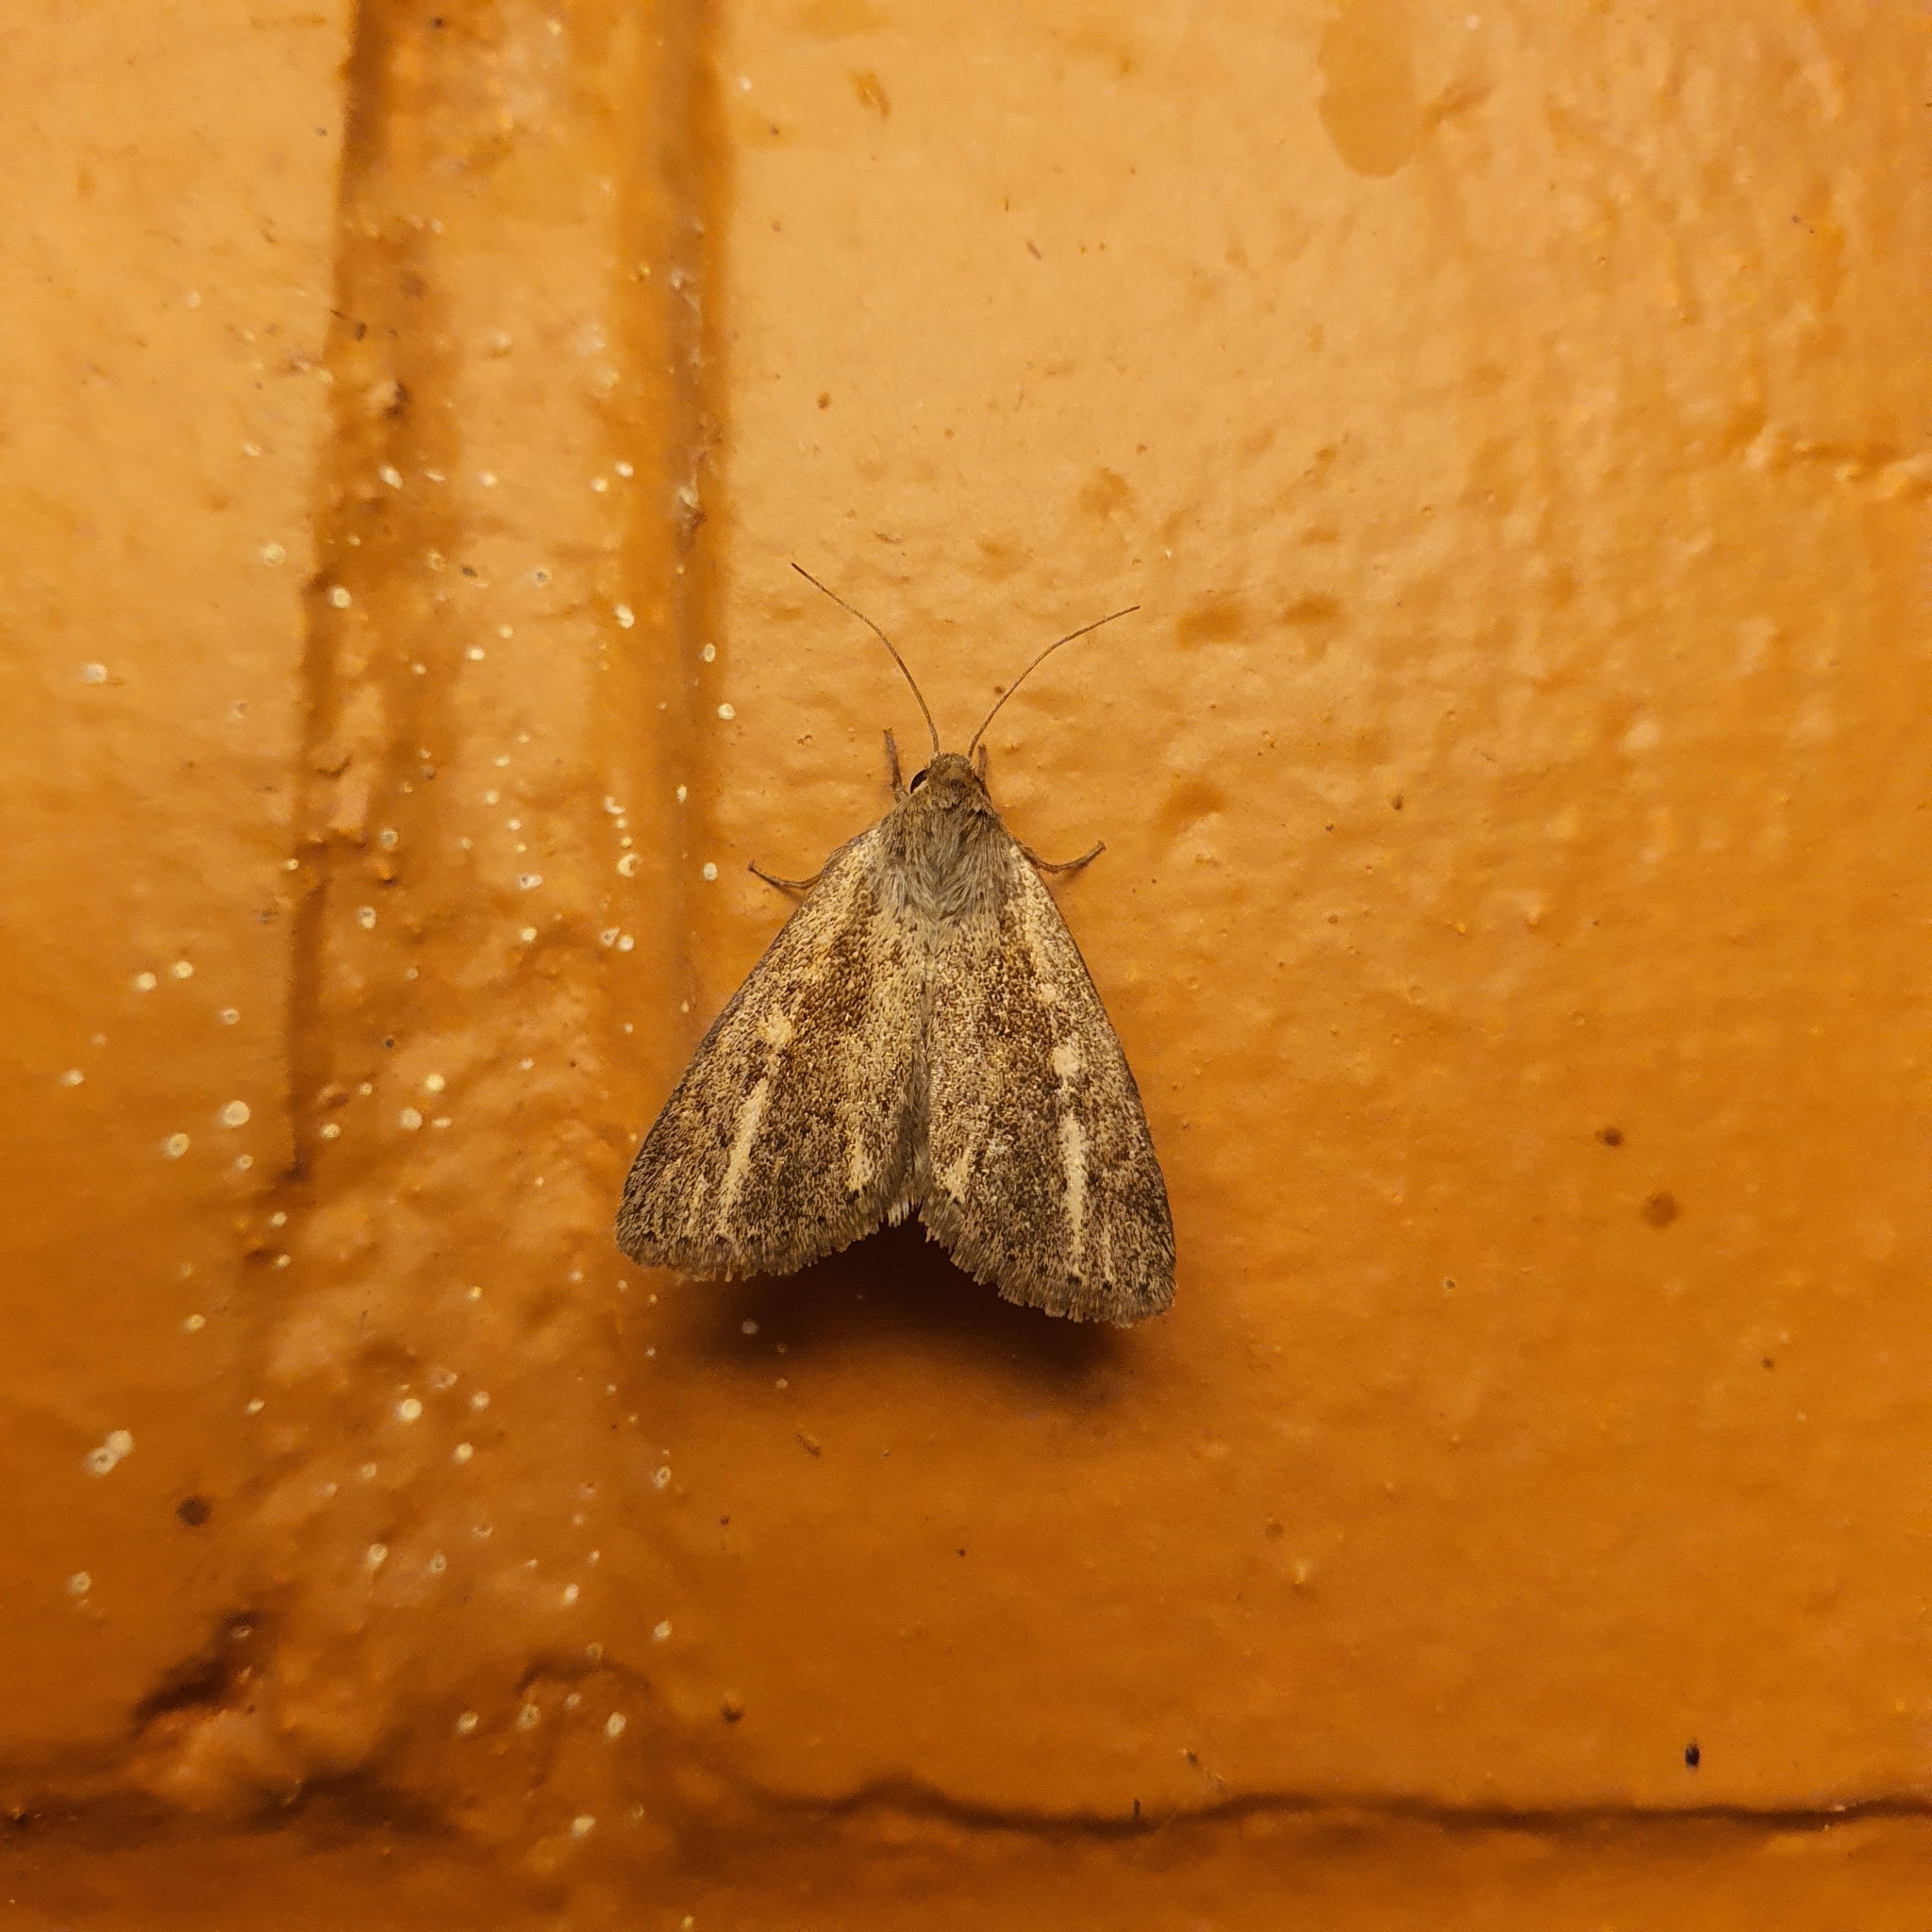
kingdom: Animalia
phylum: Arthropoda
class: Insecta
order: Lepidoptera
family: Noctuidae
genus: Heliocheilus
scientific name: Heliocheilus aberrans
